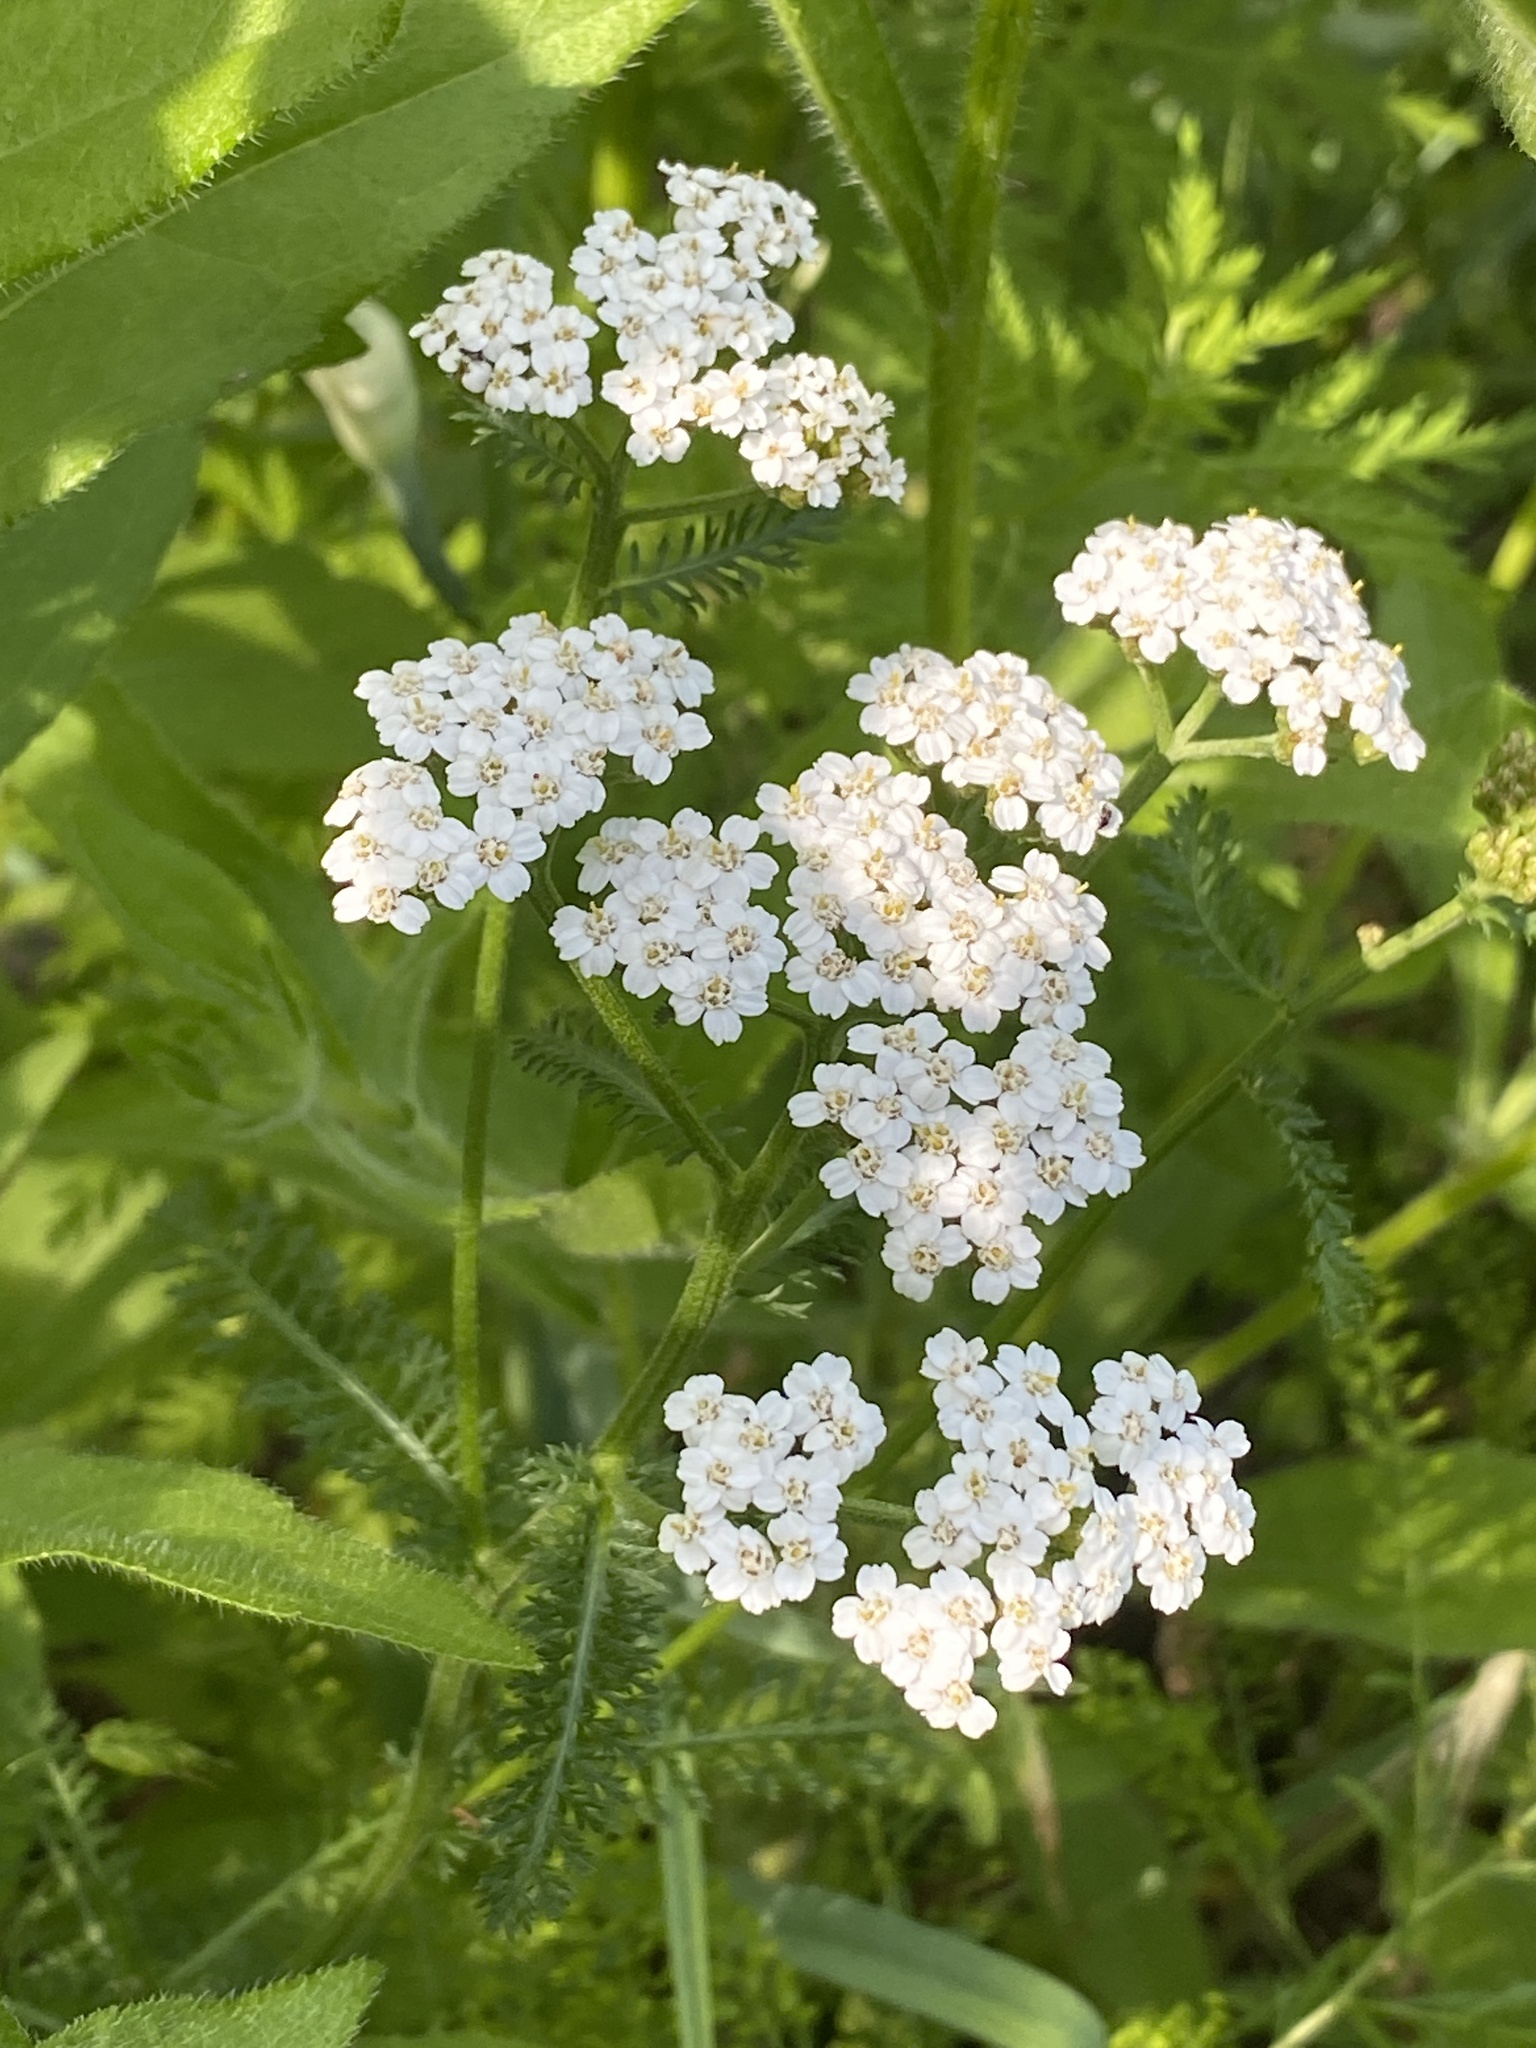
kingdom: Plantae
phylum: Tracheophyta
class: Magnoliopsida
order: Asterales
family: Asteraceae
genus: Achillea
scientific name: Achillea millefolium
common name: Yarrow
